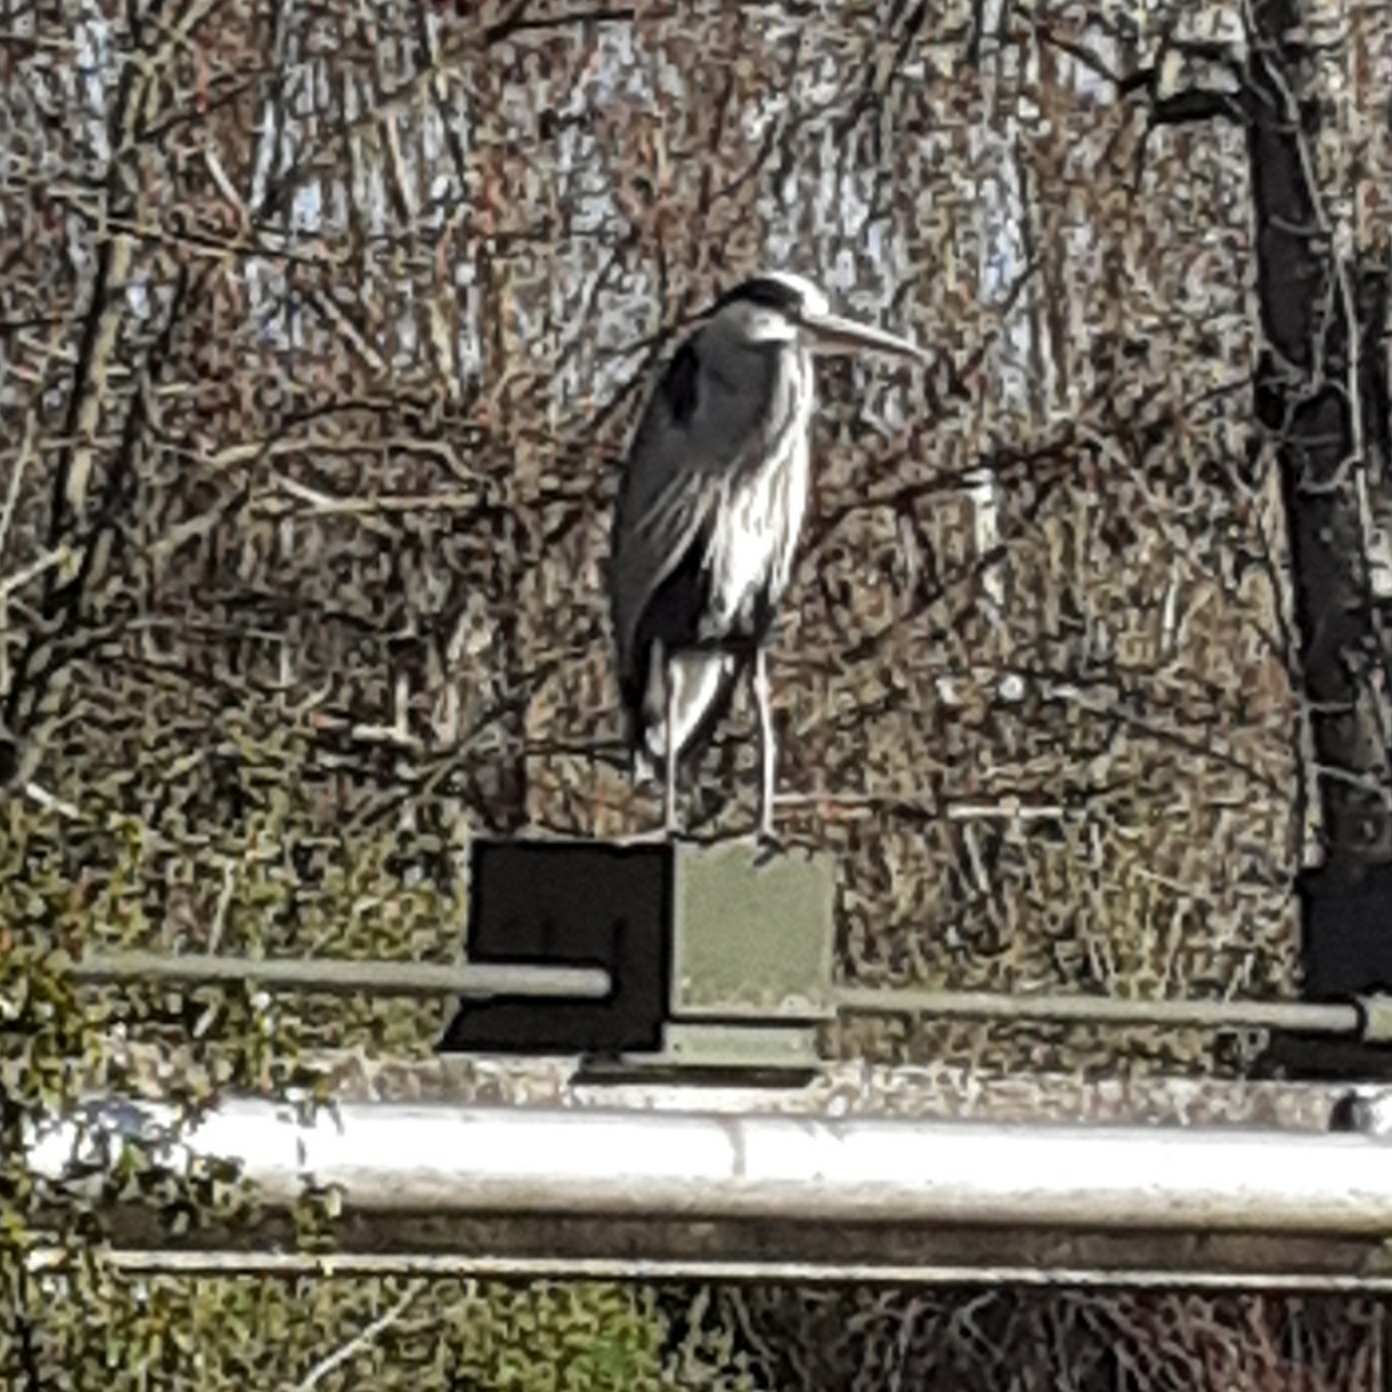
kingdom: Animalia
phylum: Chordata
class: Aves
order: Pelecaniformes
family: Ardeidae
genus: Ardea
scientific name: Ardea cinerea
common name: Grey heron
